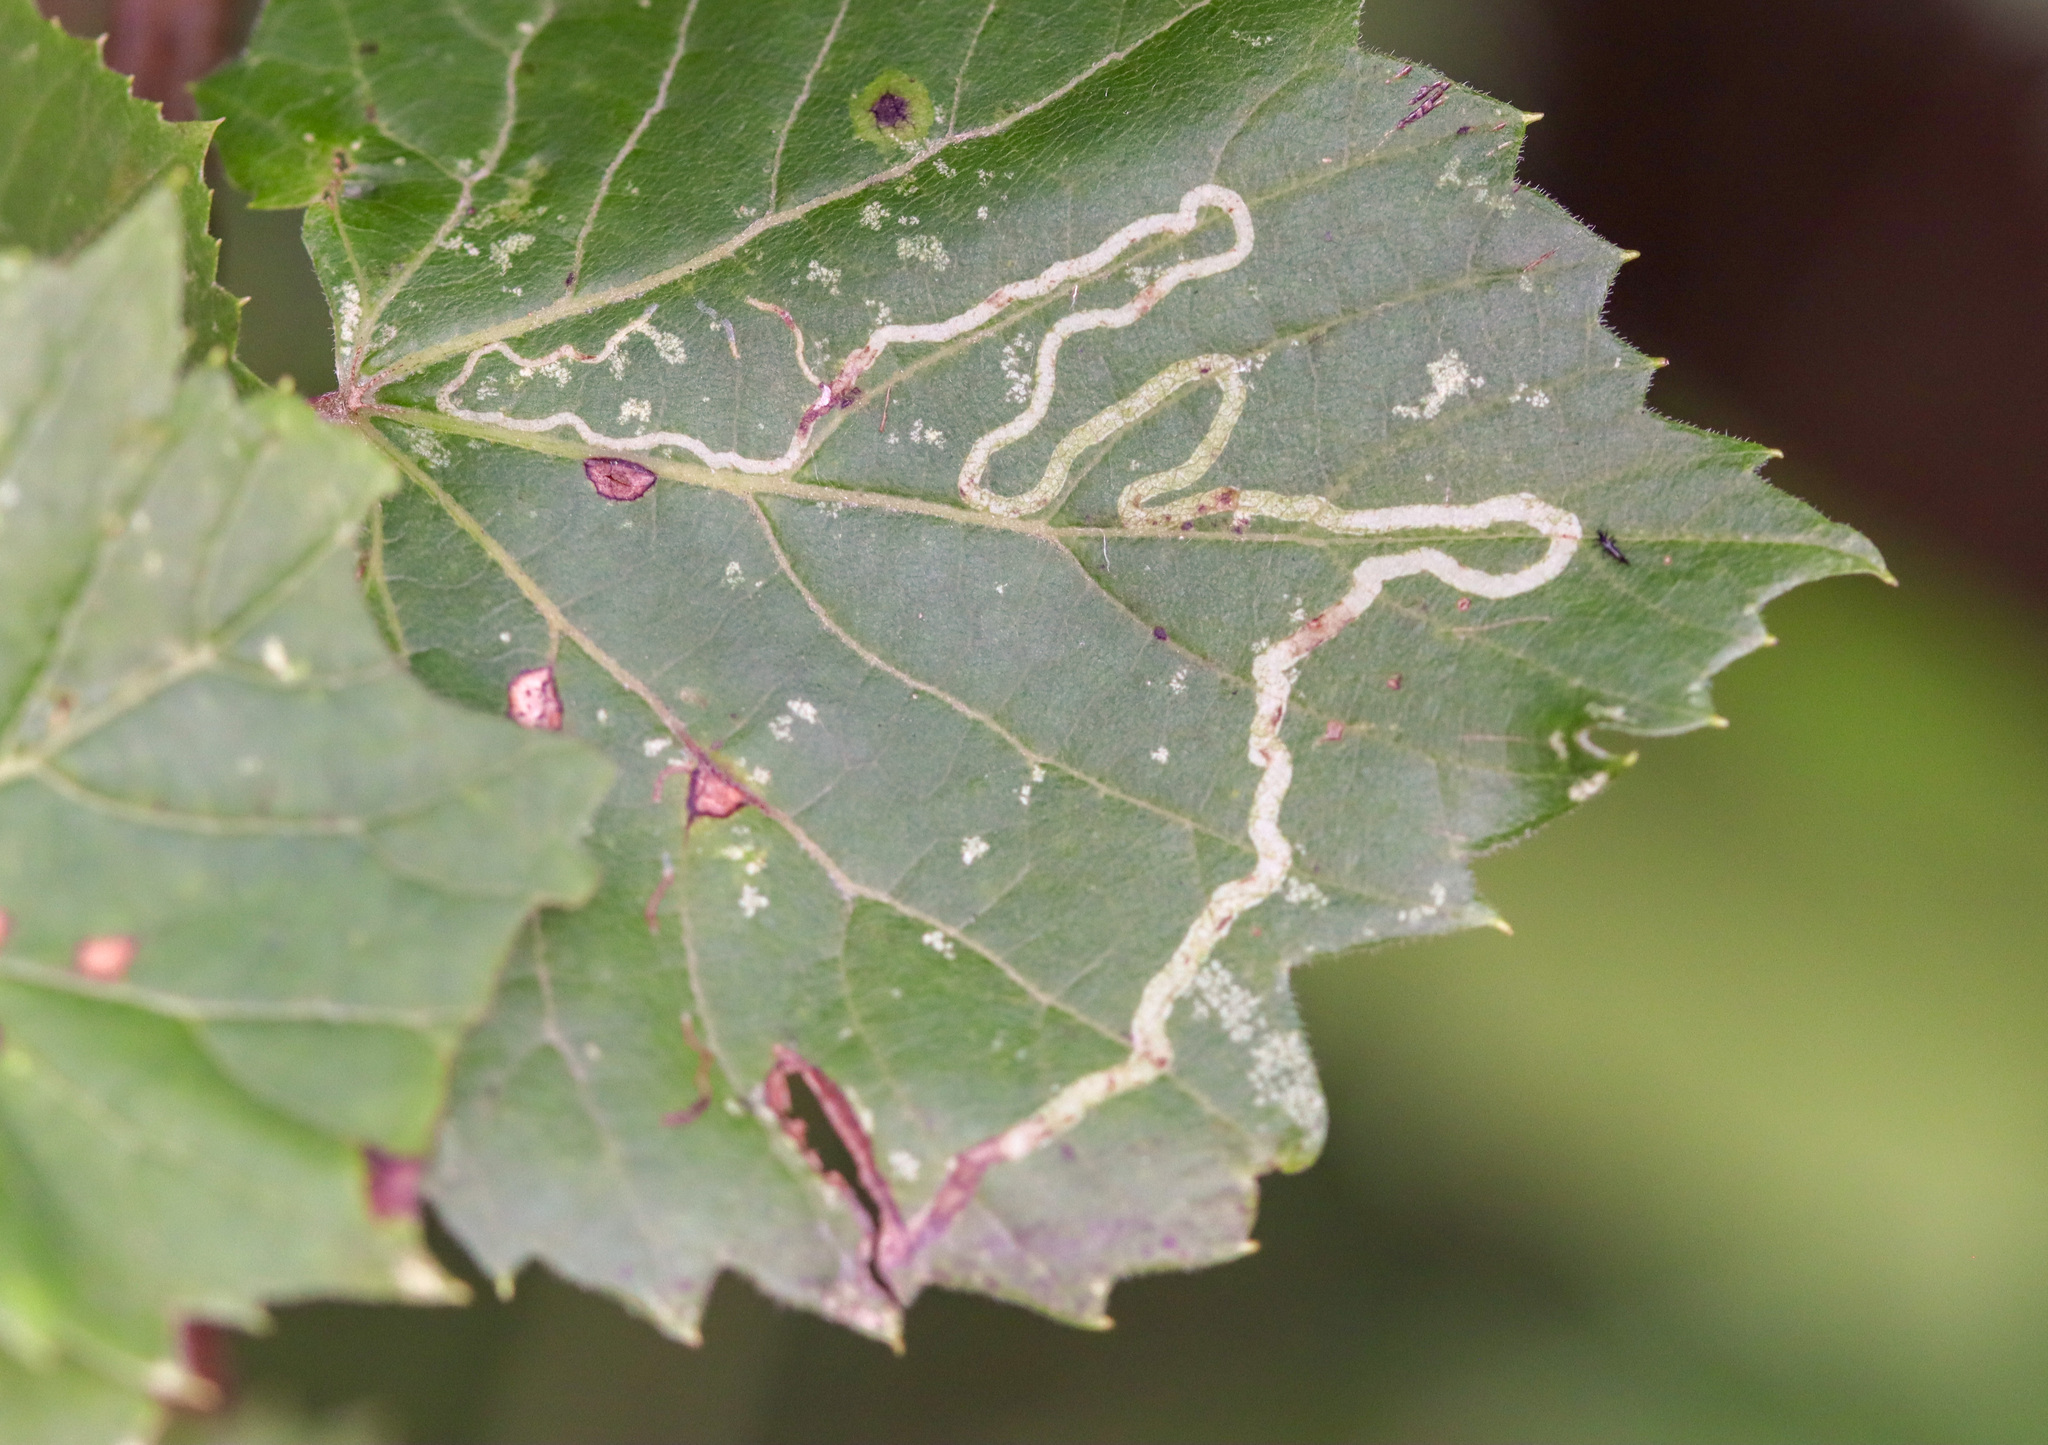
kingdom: Animalia
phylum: Arthropoda
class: Insecta
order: Lepidoptera
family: Gracillariidae
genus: Phyllocnistis
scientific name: Phyllocnistis vitifoliella
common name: Grape leaf-miner moth
